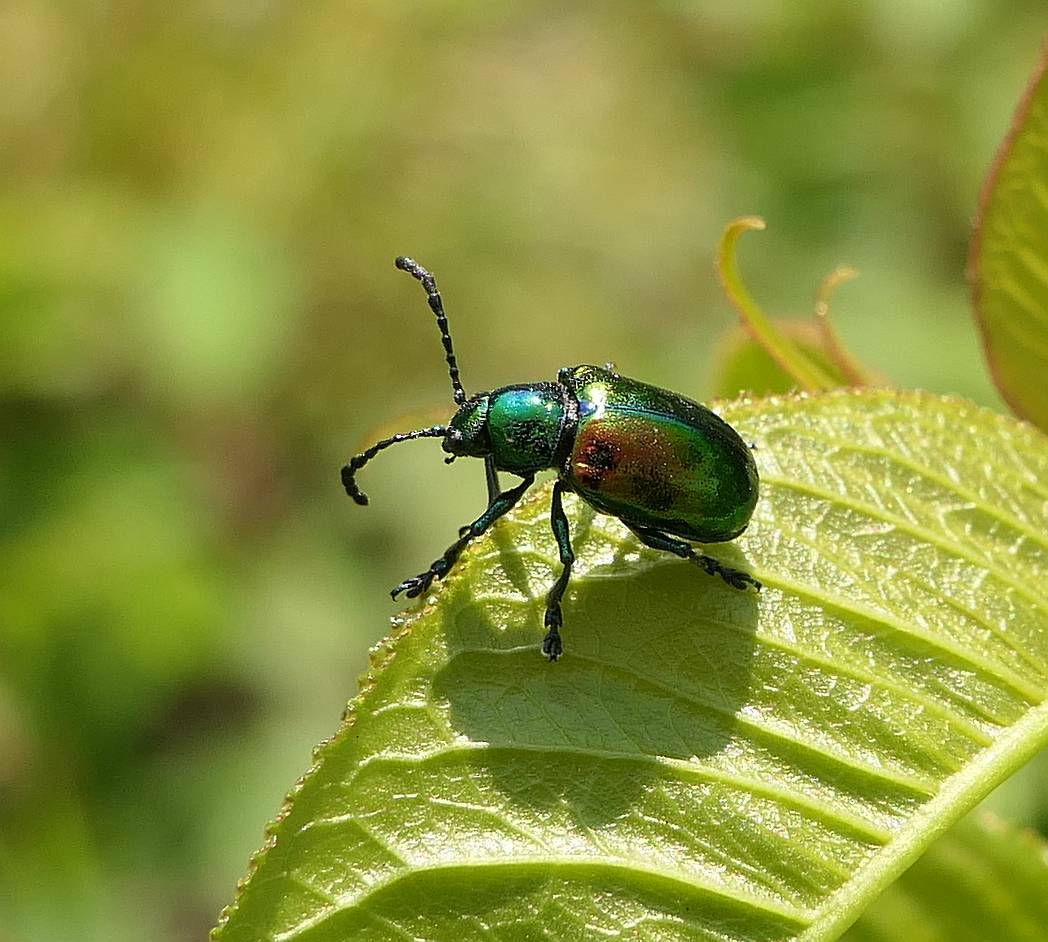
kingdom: Animalia
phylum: Arthropoda
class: Insecta
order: Coleoptera
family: Chrysomelidae
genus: Chrysochus
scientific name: Chrysochus auratus
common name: Dogbane leaf beetle
